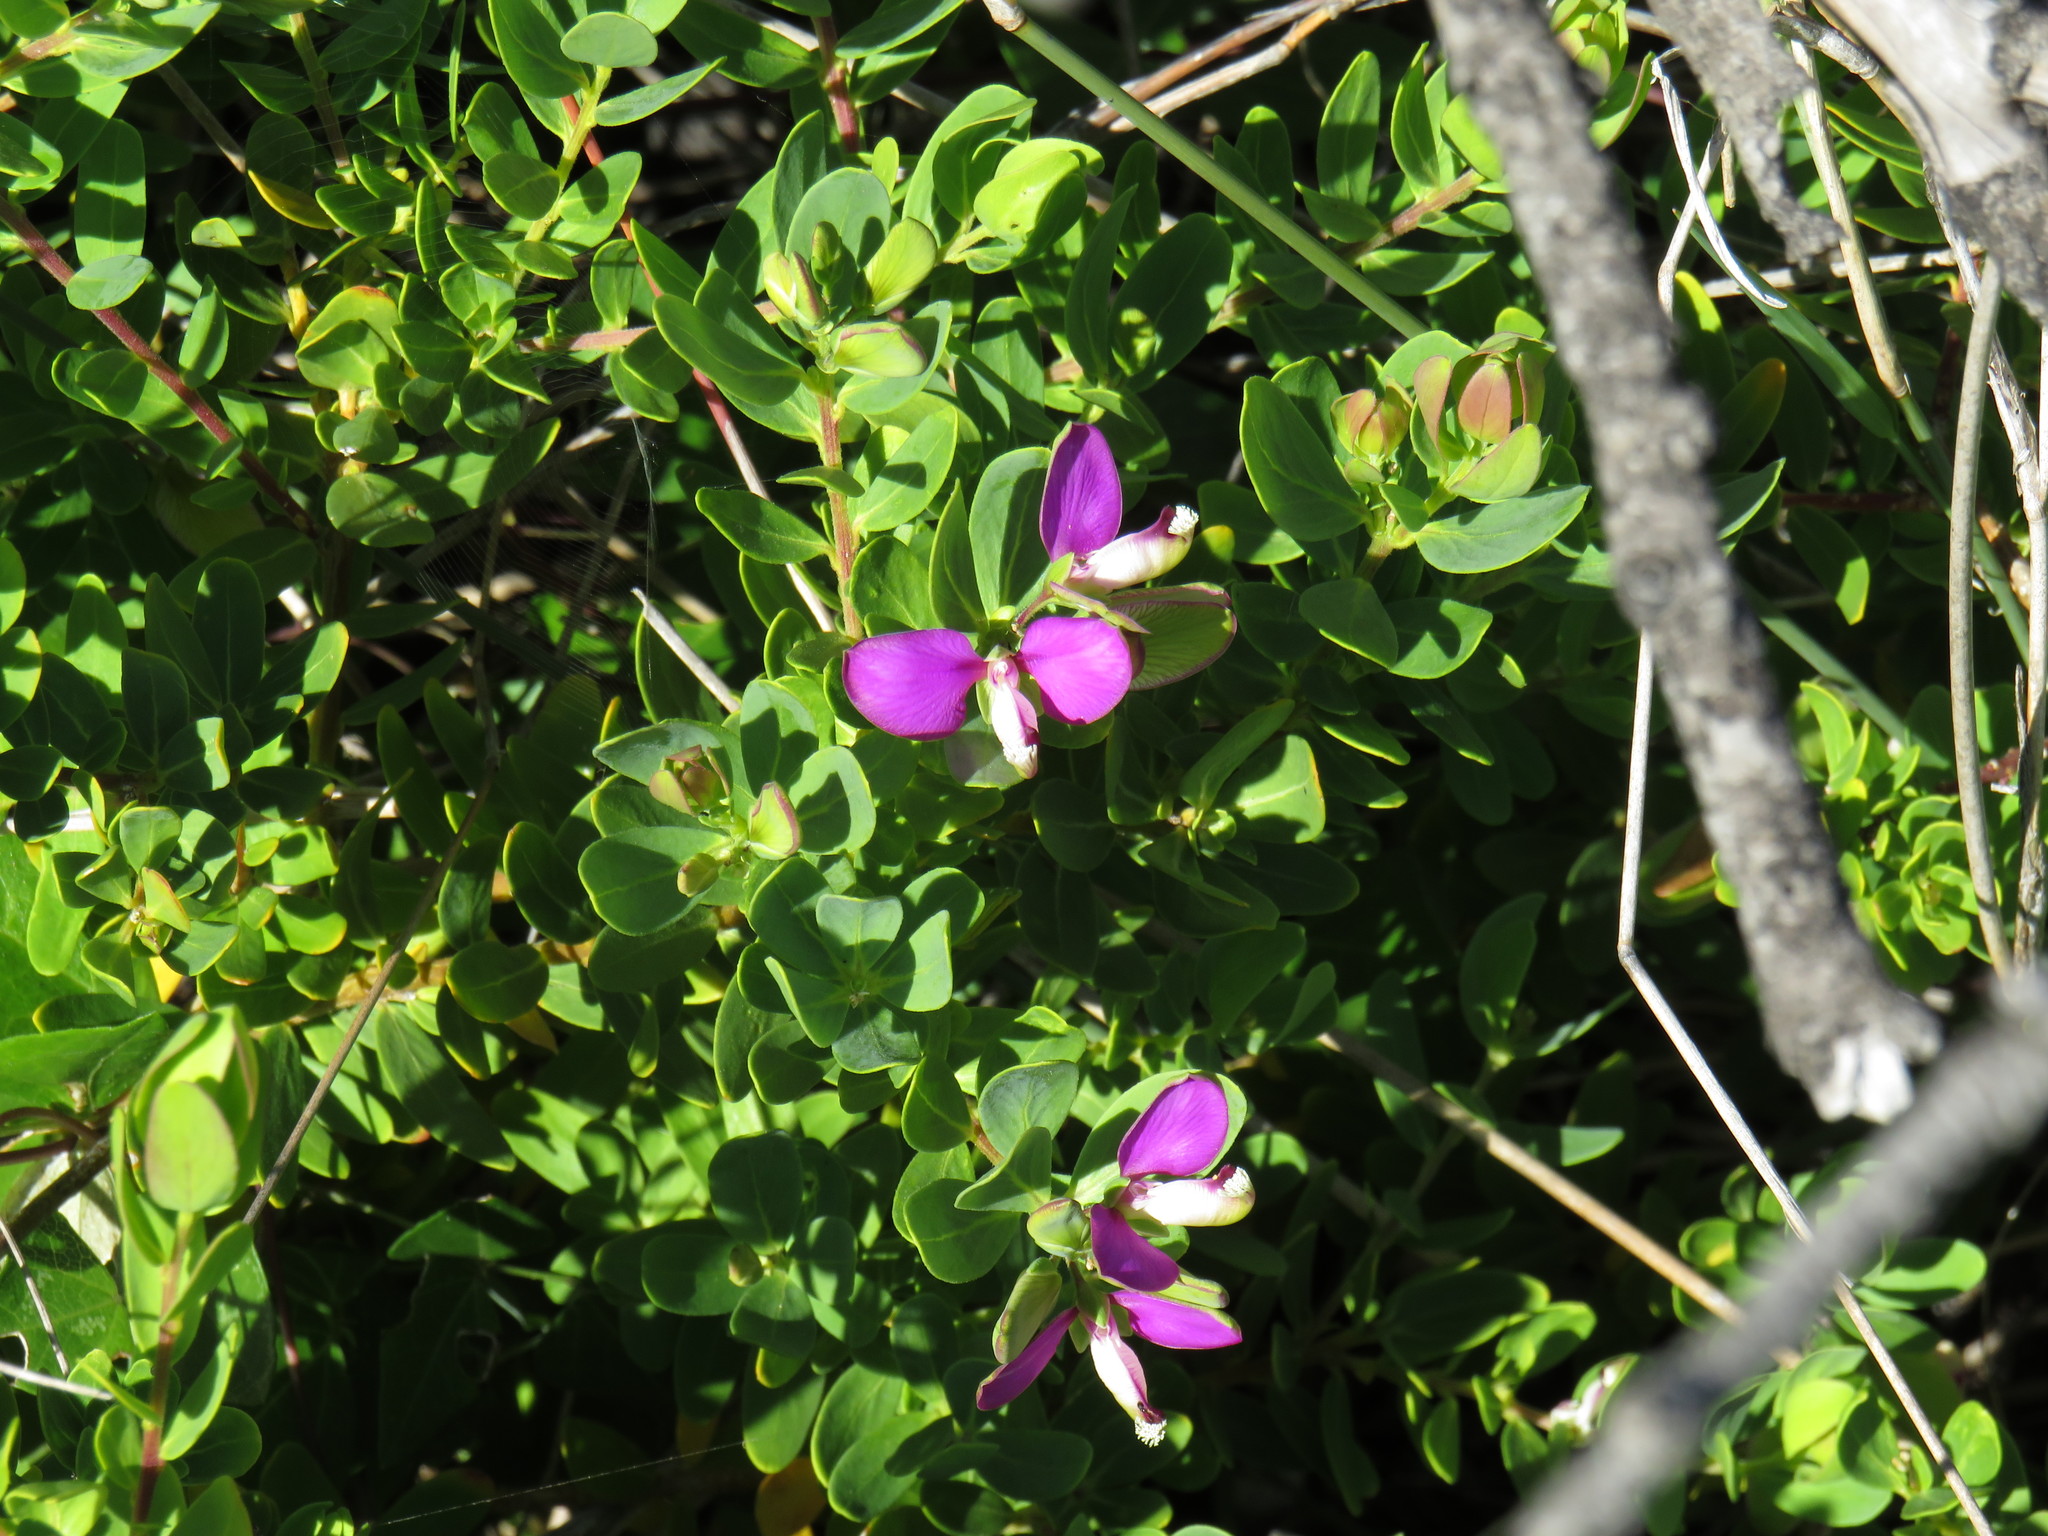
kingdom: Plantae
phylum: Tracheophyta
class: Magnoliopsida
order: Fabales
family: Polygalaceae
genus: Polygala
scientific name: Polygala myrtifolia
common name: Myrtle-leaf milkwort
